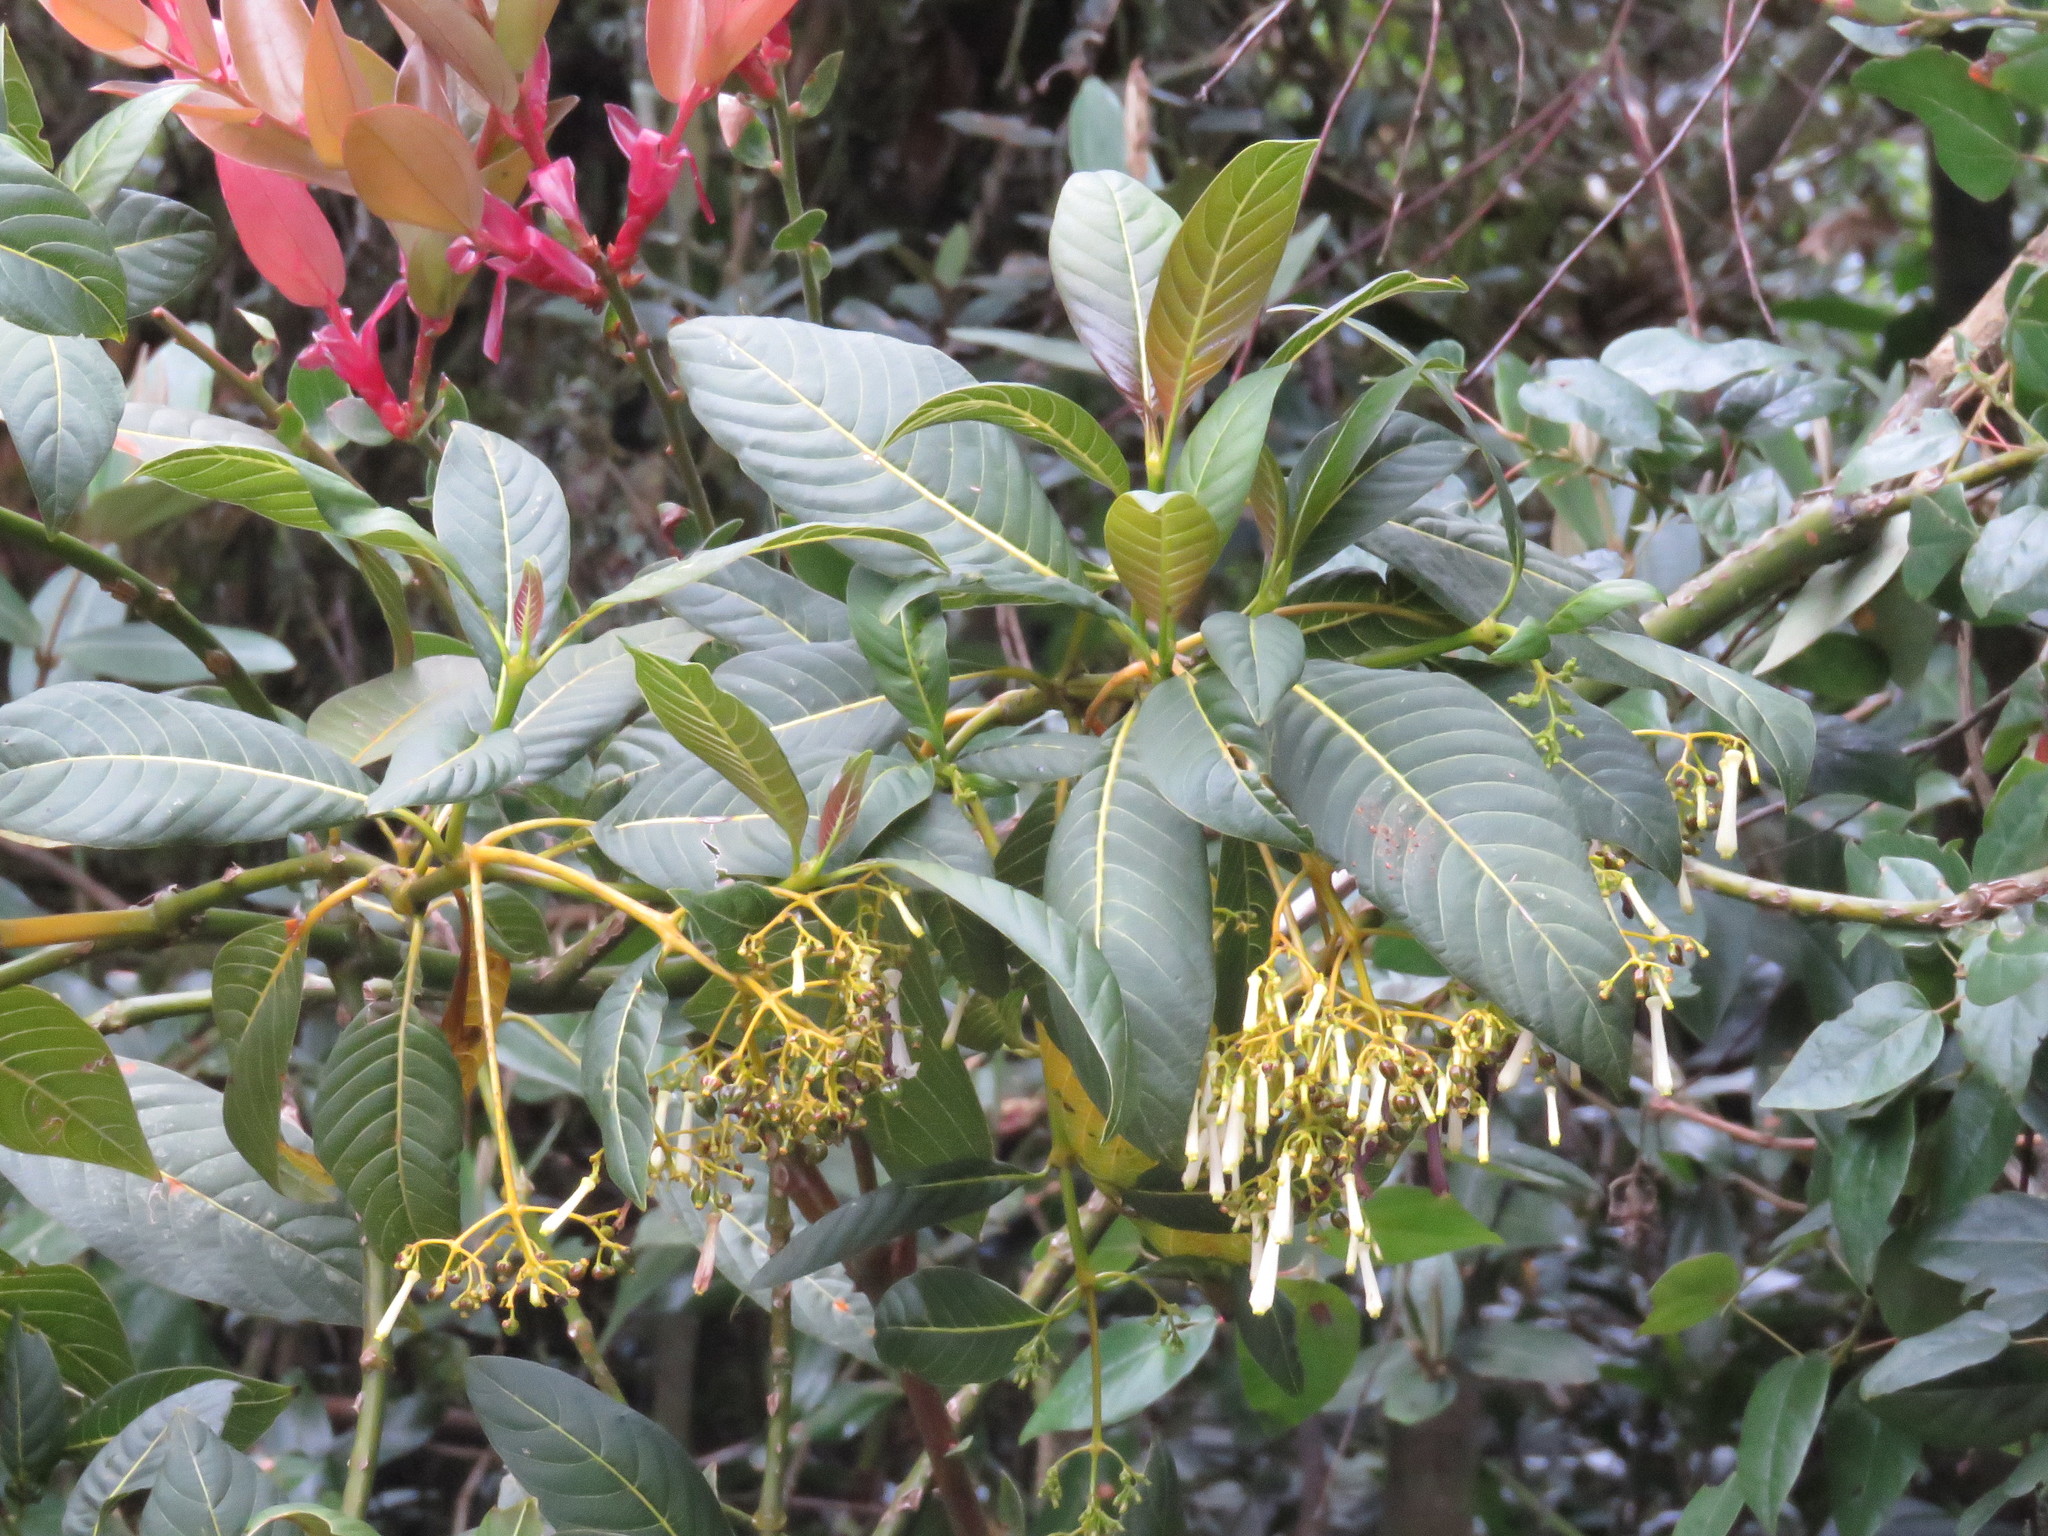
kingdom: Plantae
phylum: Tracheophyta
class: Magnoliopsida
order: Gentianales
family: Rubiaceae
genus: Palicourea
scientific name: Palicourea lineariflora
